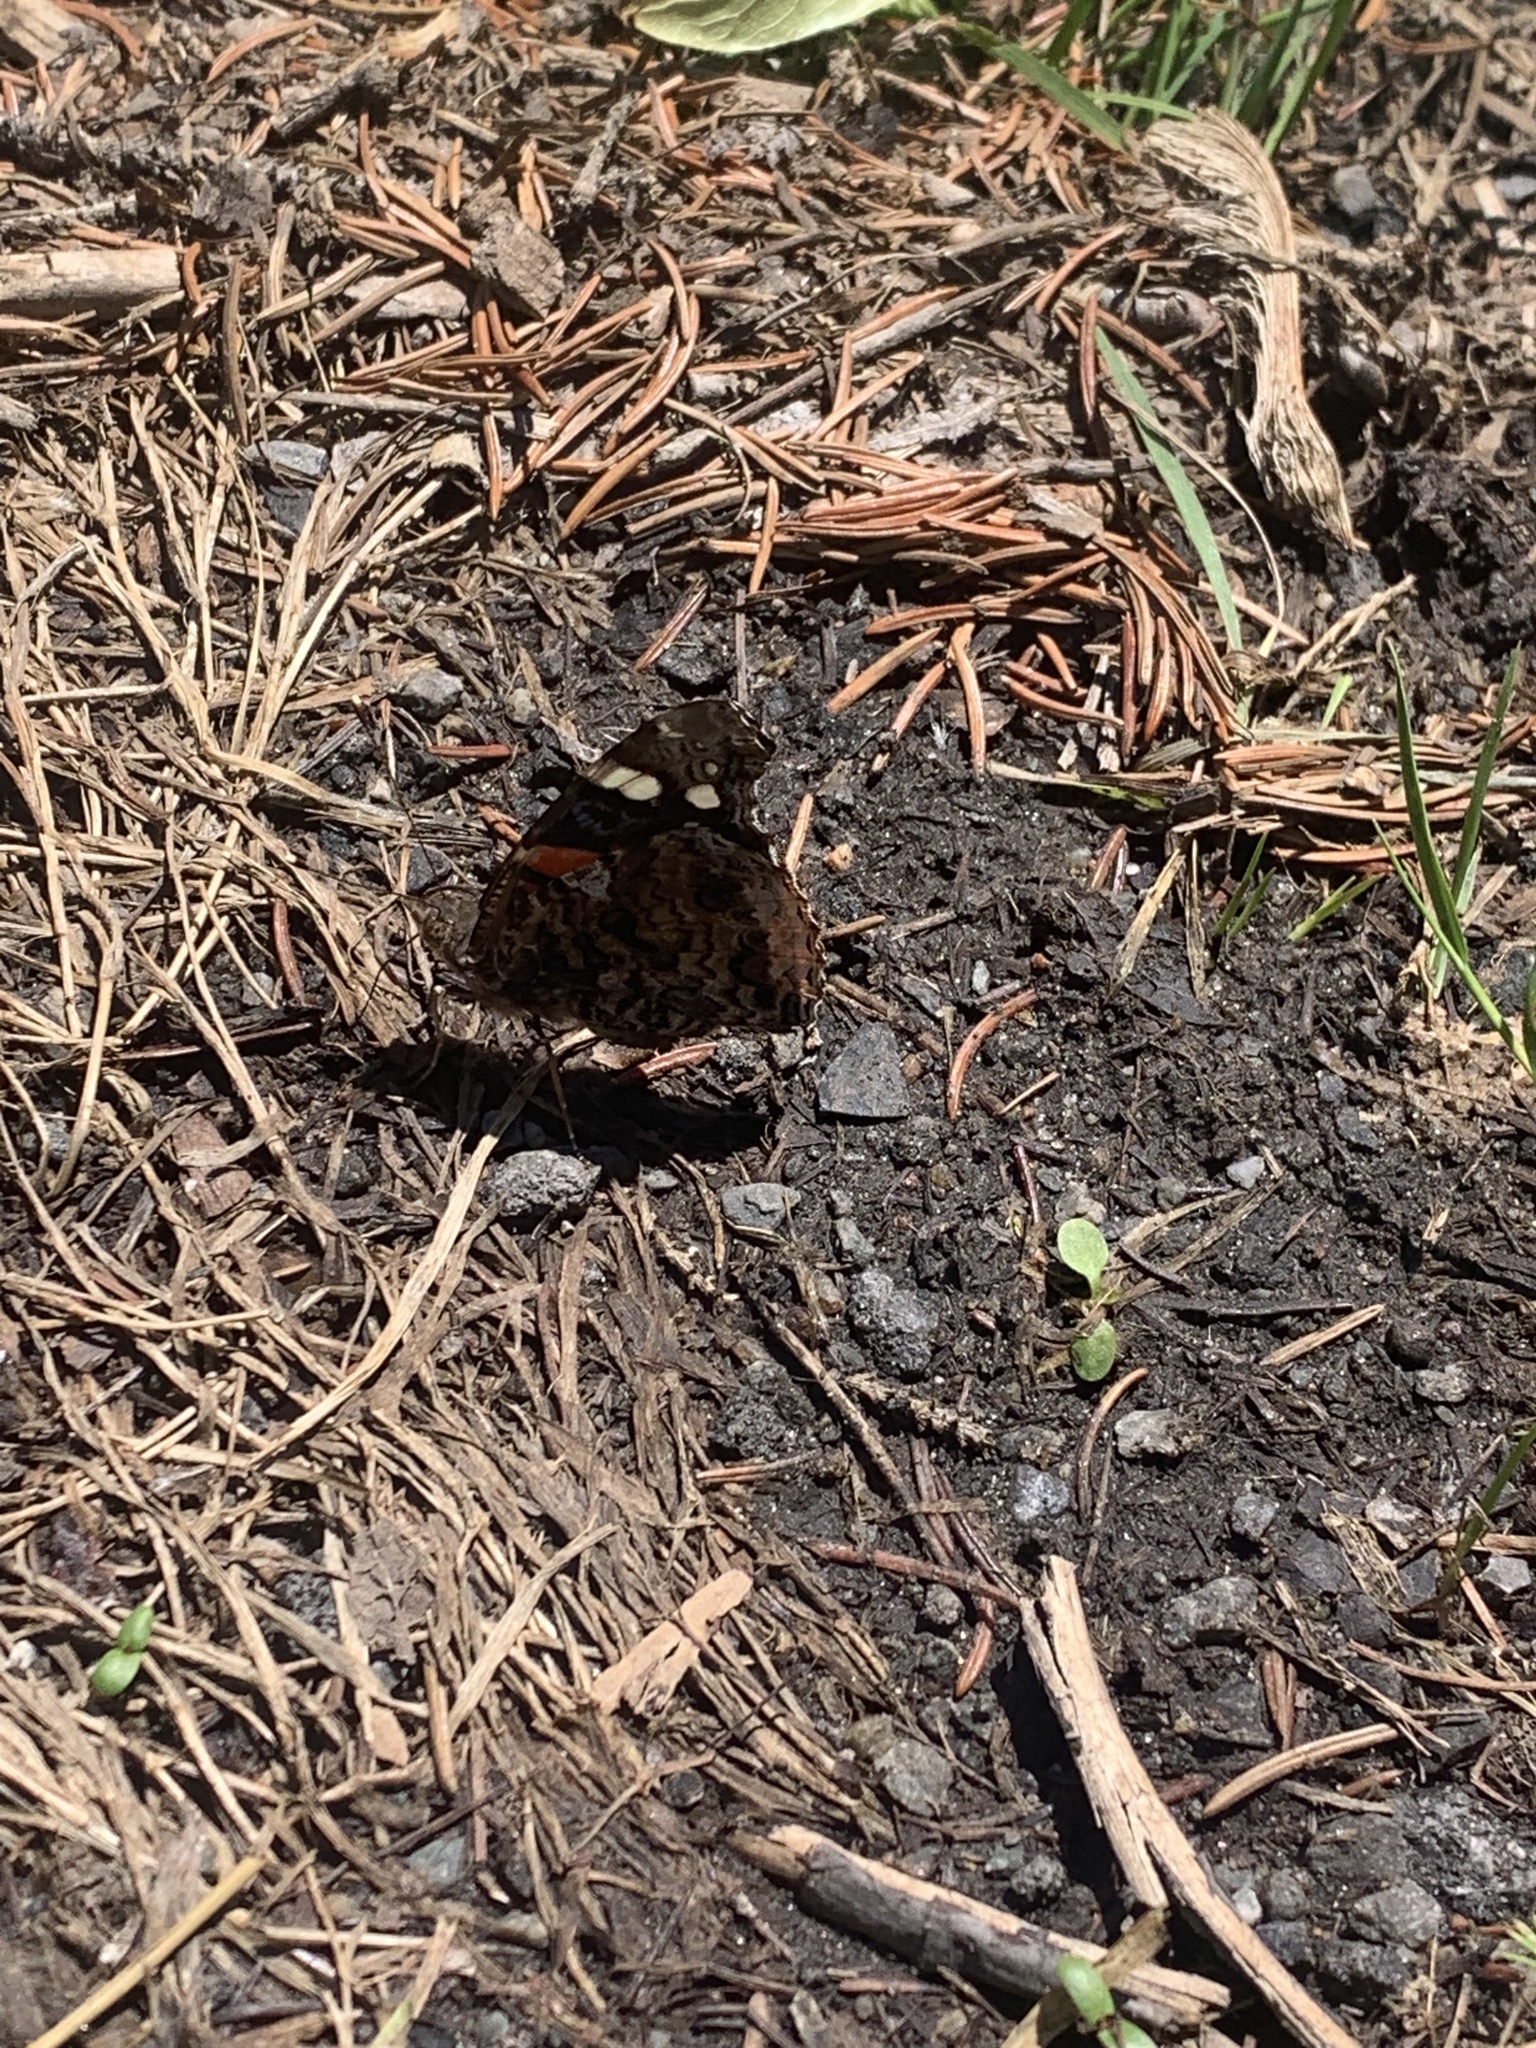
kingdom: Animalia
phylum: Arthropoda
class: Insecta
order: Lepidoptera
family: Nymphalidae
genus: Vanessa
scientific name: Vanessa atalanta
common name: Red admiral
